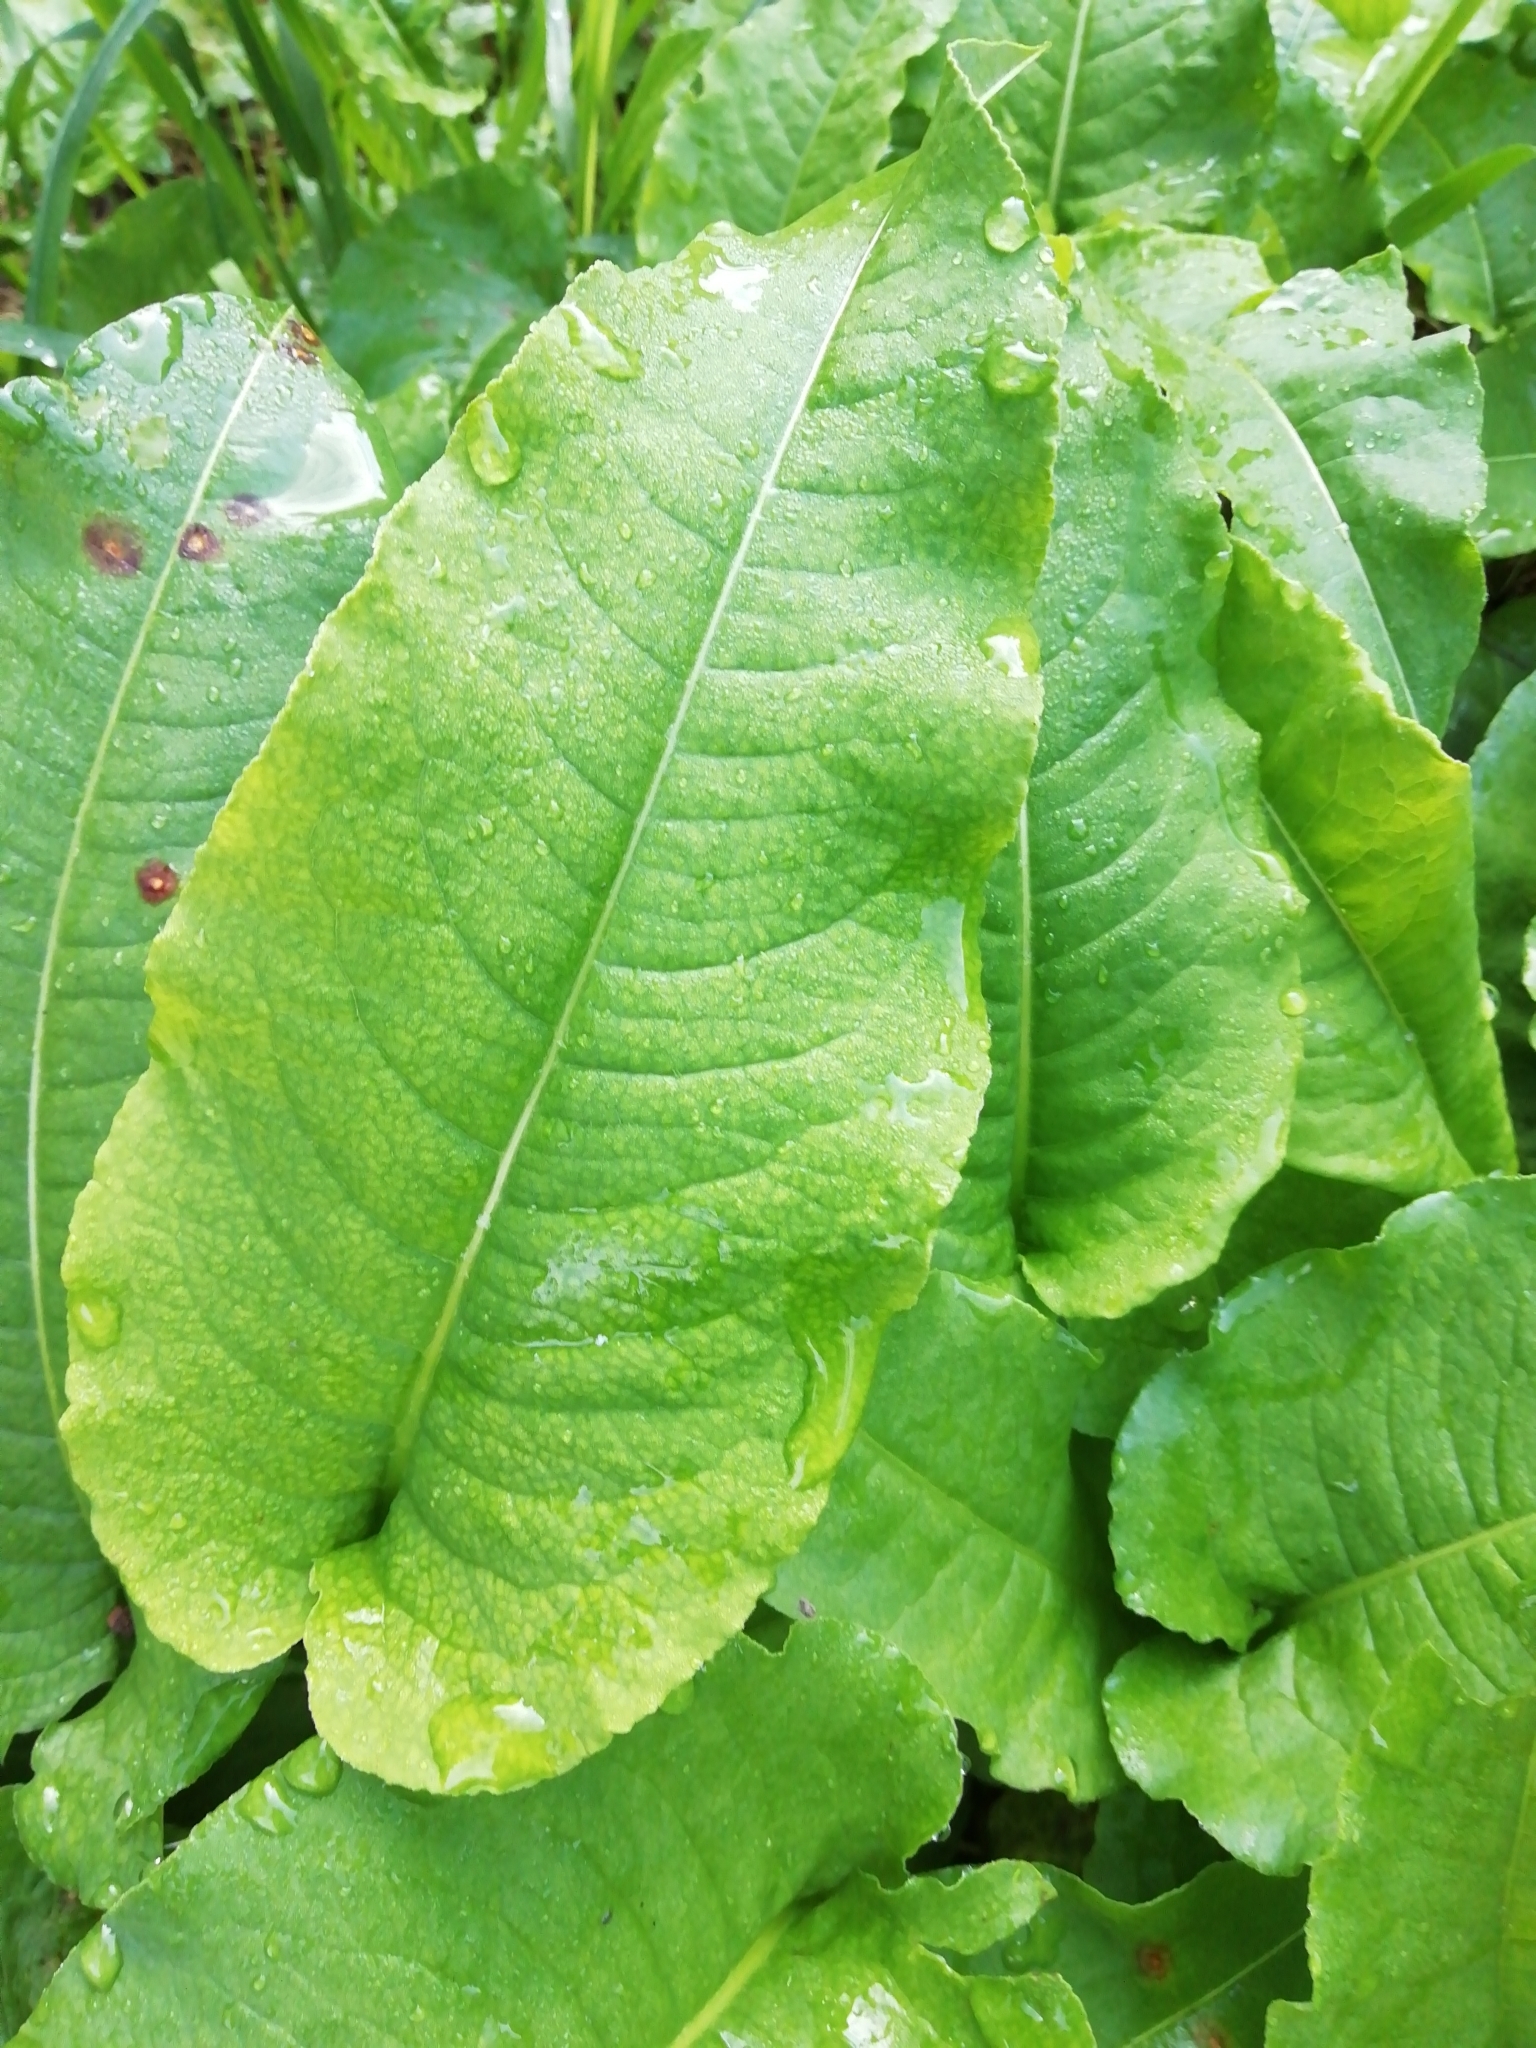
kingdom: Plantae
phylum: Tracheophyta
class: Magnoliopsida
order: Caryophyllales
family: Polygonaceae
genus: Bistorta
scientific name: Bistorta officinalis
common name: Common bistort
